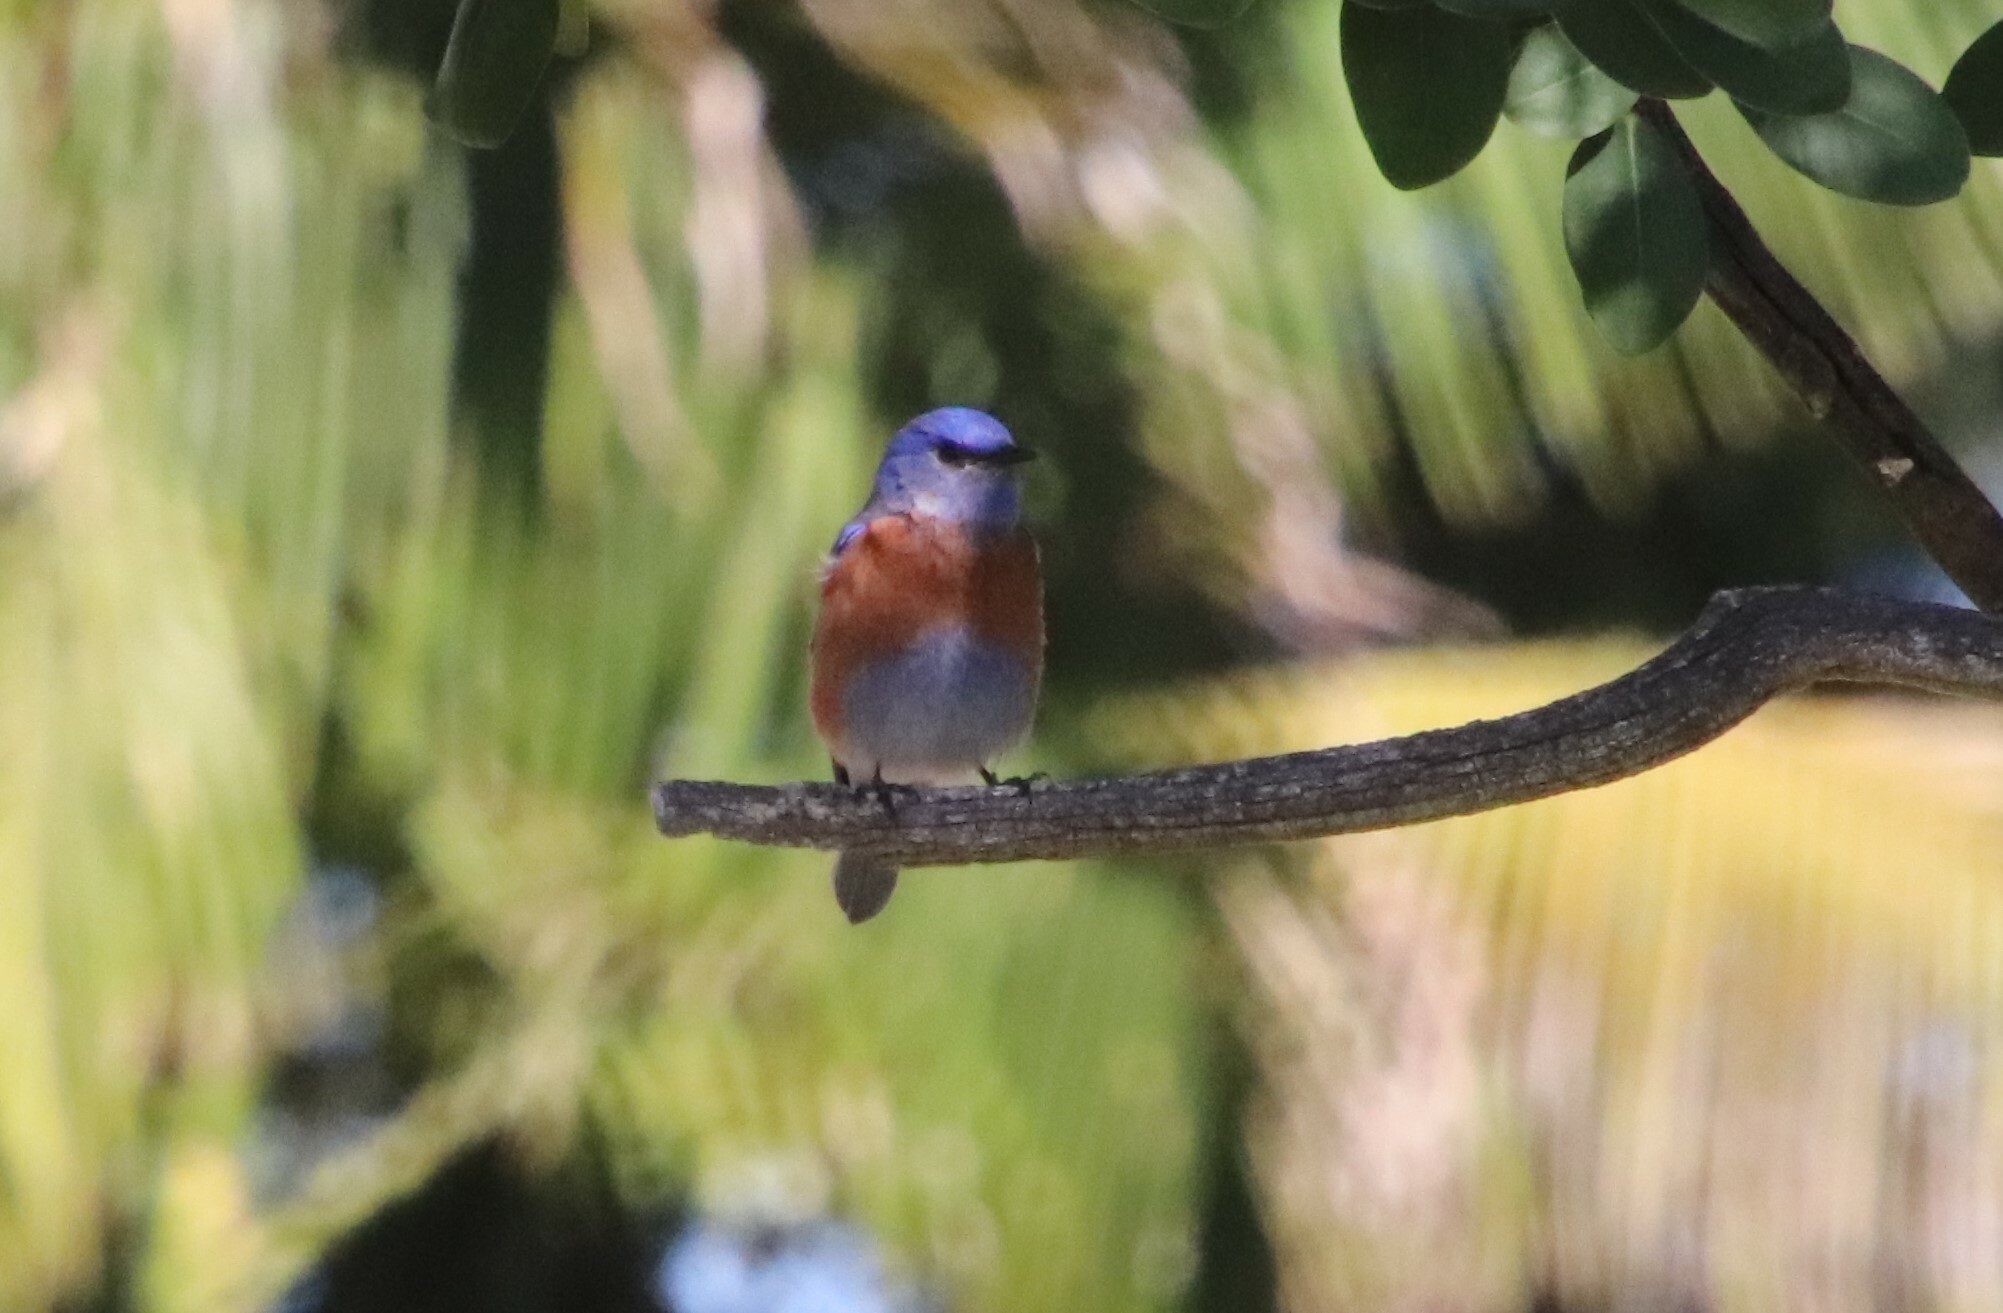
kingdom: Animalia
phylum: Chordata
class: Aves
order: Passeriformes
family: Turdidae
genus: Sialia
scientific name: Sialia mexicana
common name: Western bluebird
